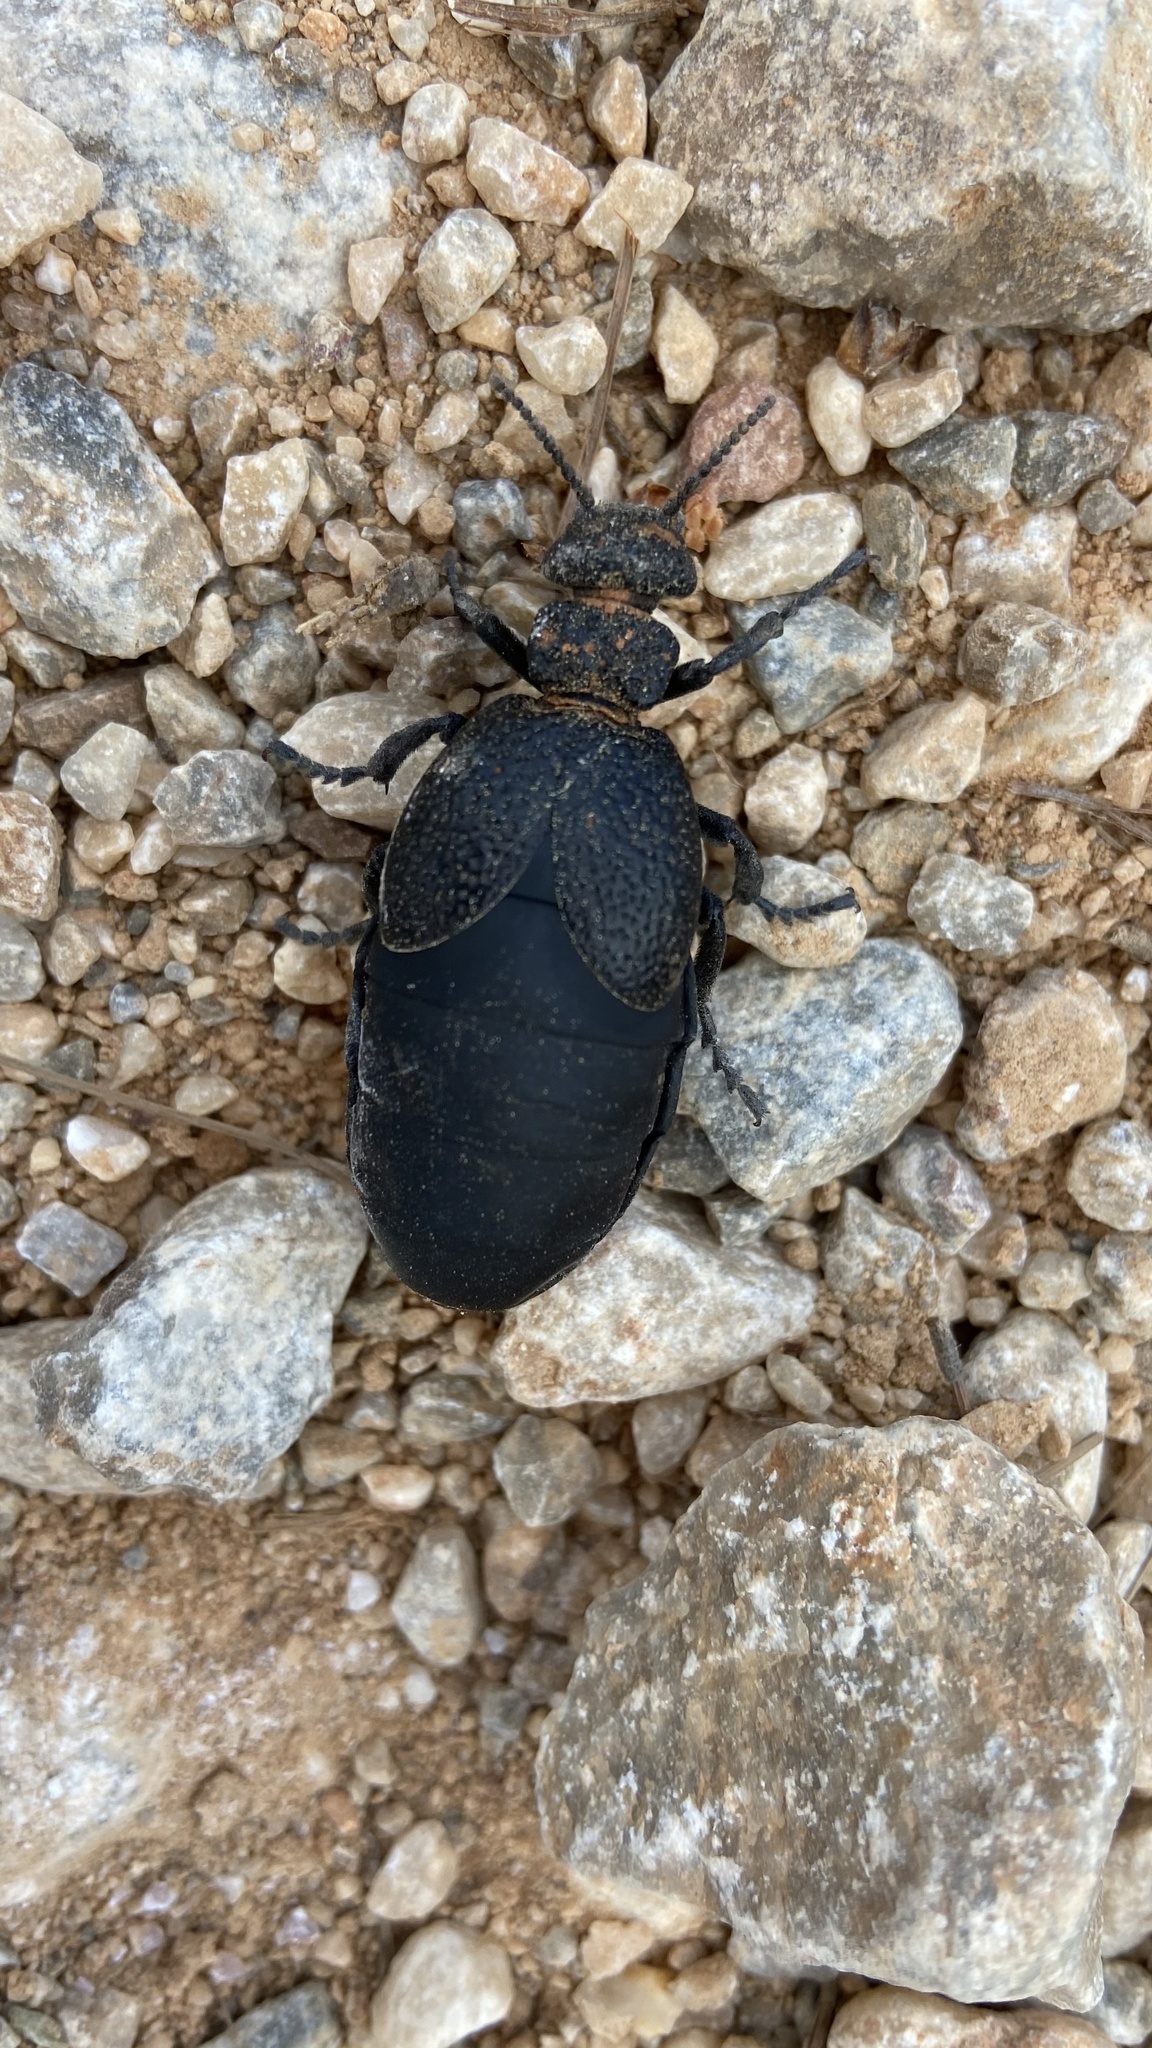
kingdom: Animalia
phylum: Arthropoda
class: Insecta
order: Coleoptera
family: Meloidae
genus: Meloe
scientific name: Meloe tuccius
